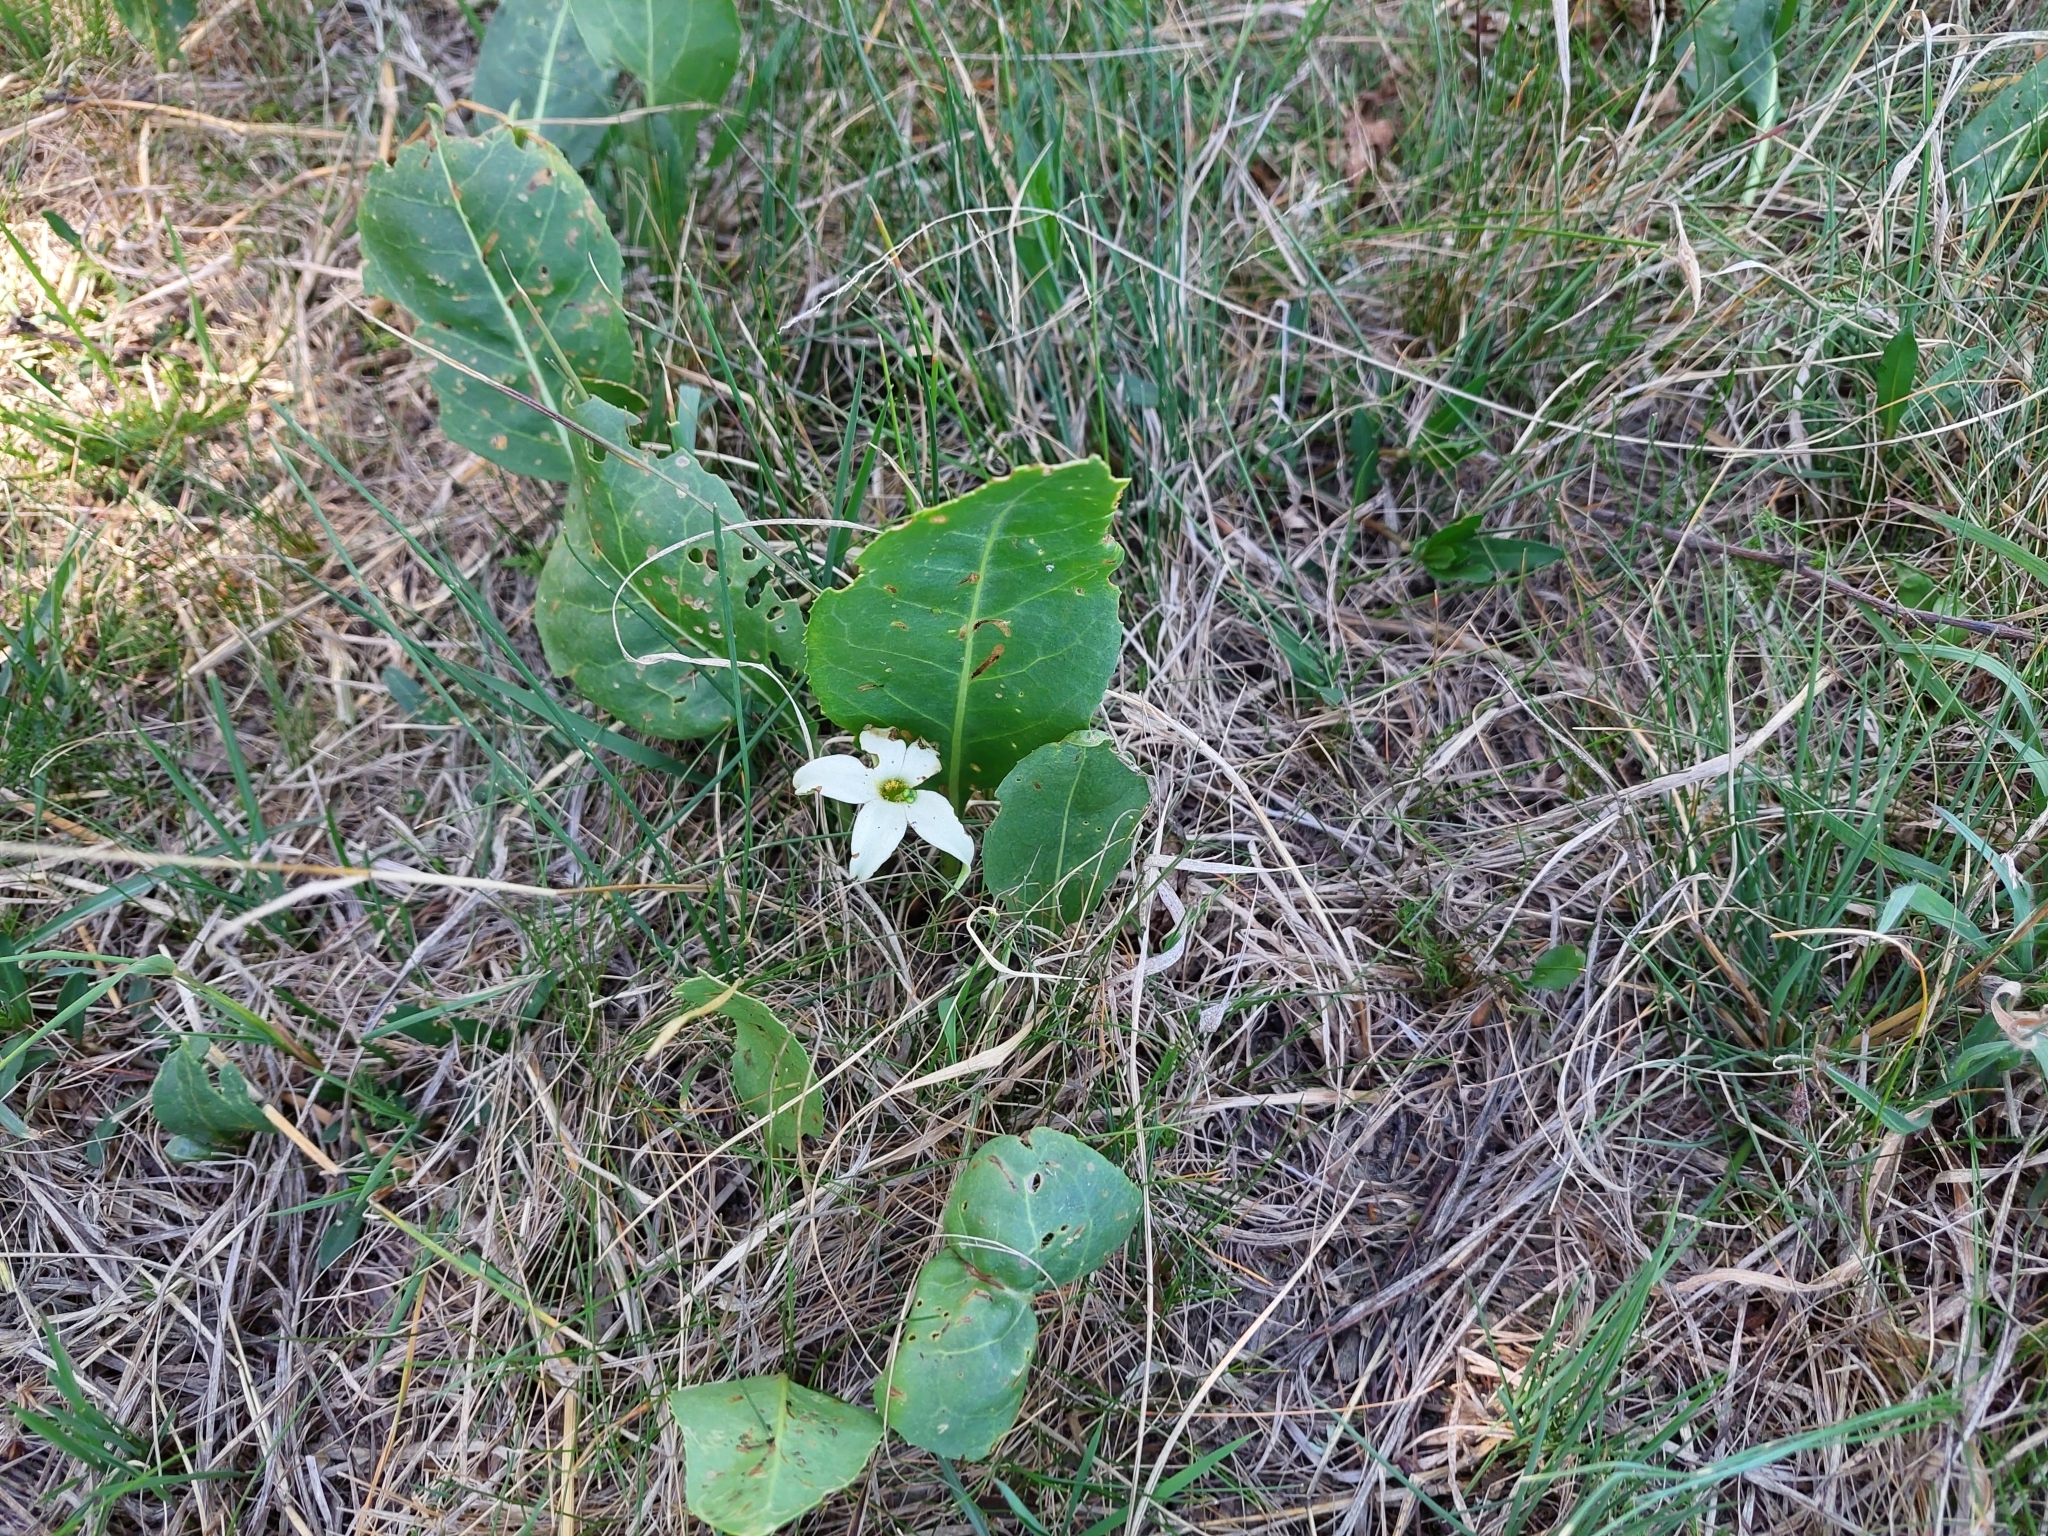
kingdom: Plantae
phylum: Tracheophyta
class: Magnoliopsida
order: Solanales
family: Solanaceae
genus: Jaborosa
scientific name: Jaborosa integrifolia
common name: Springblossom
